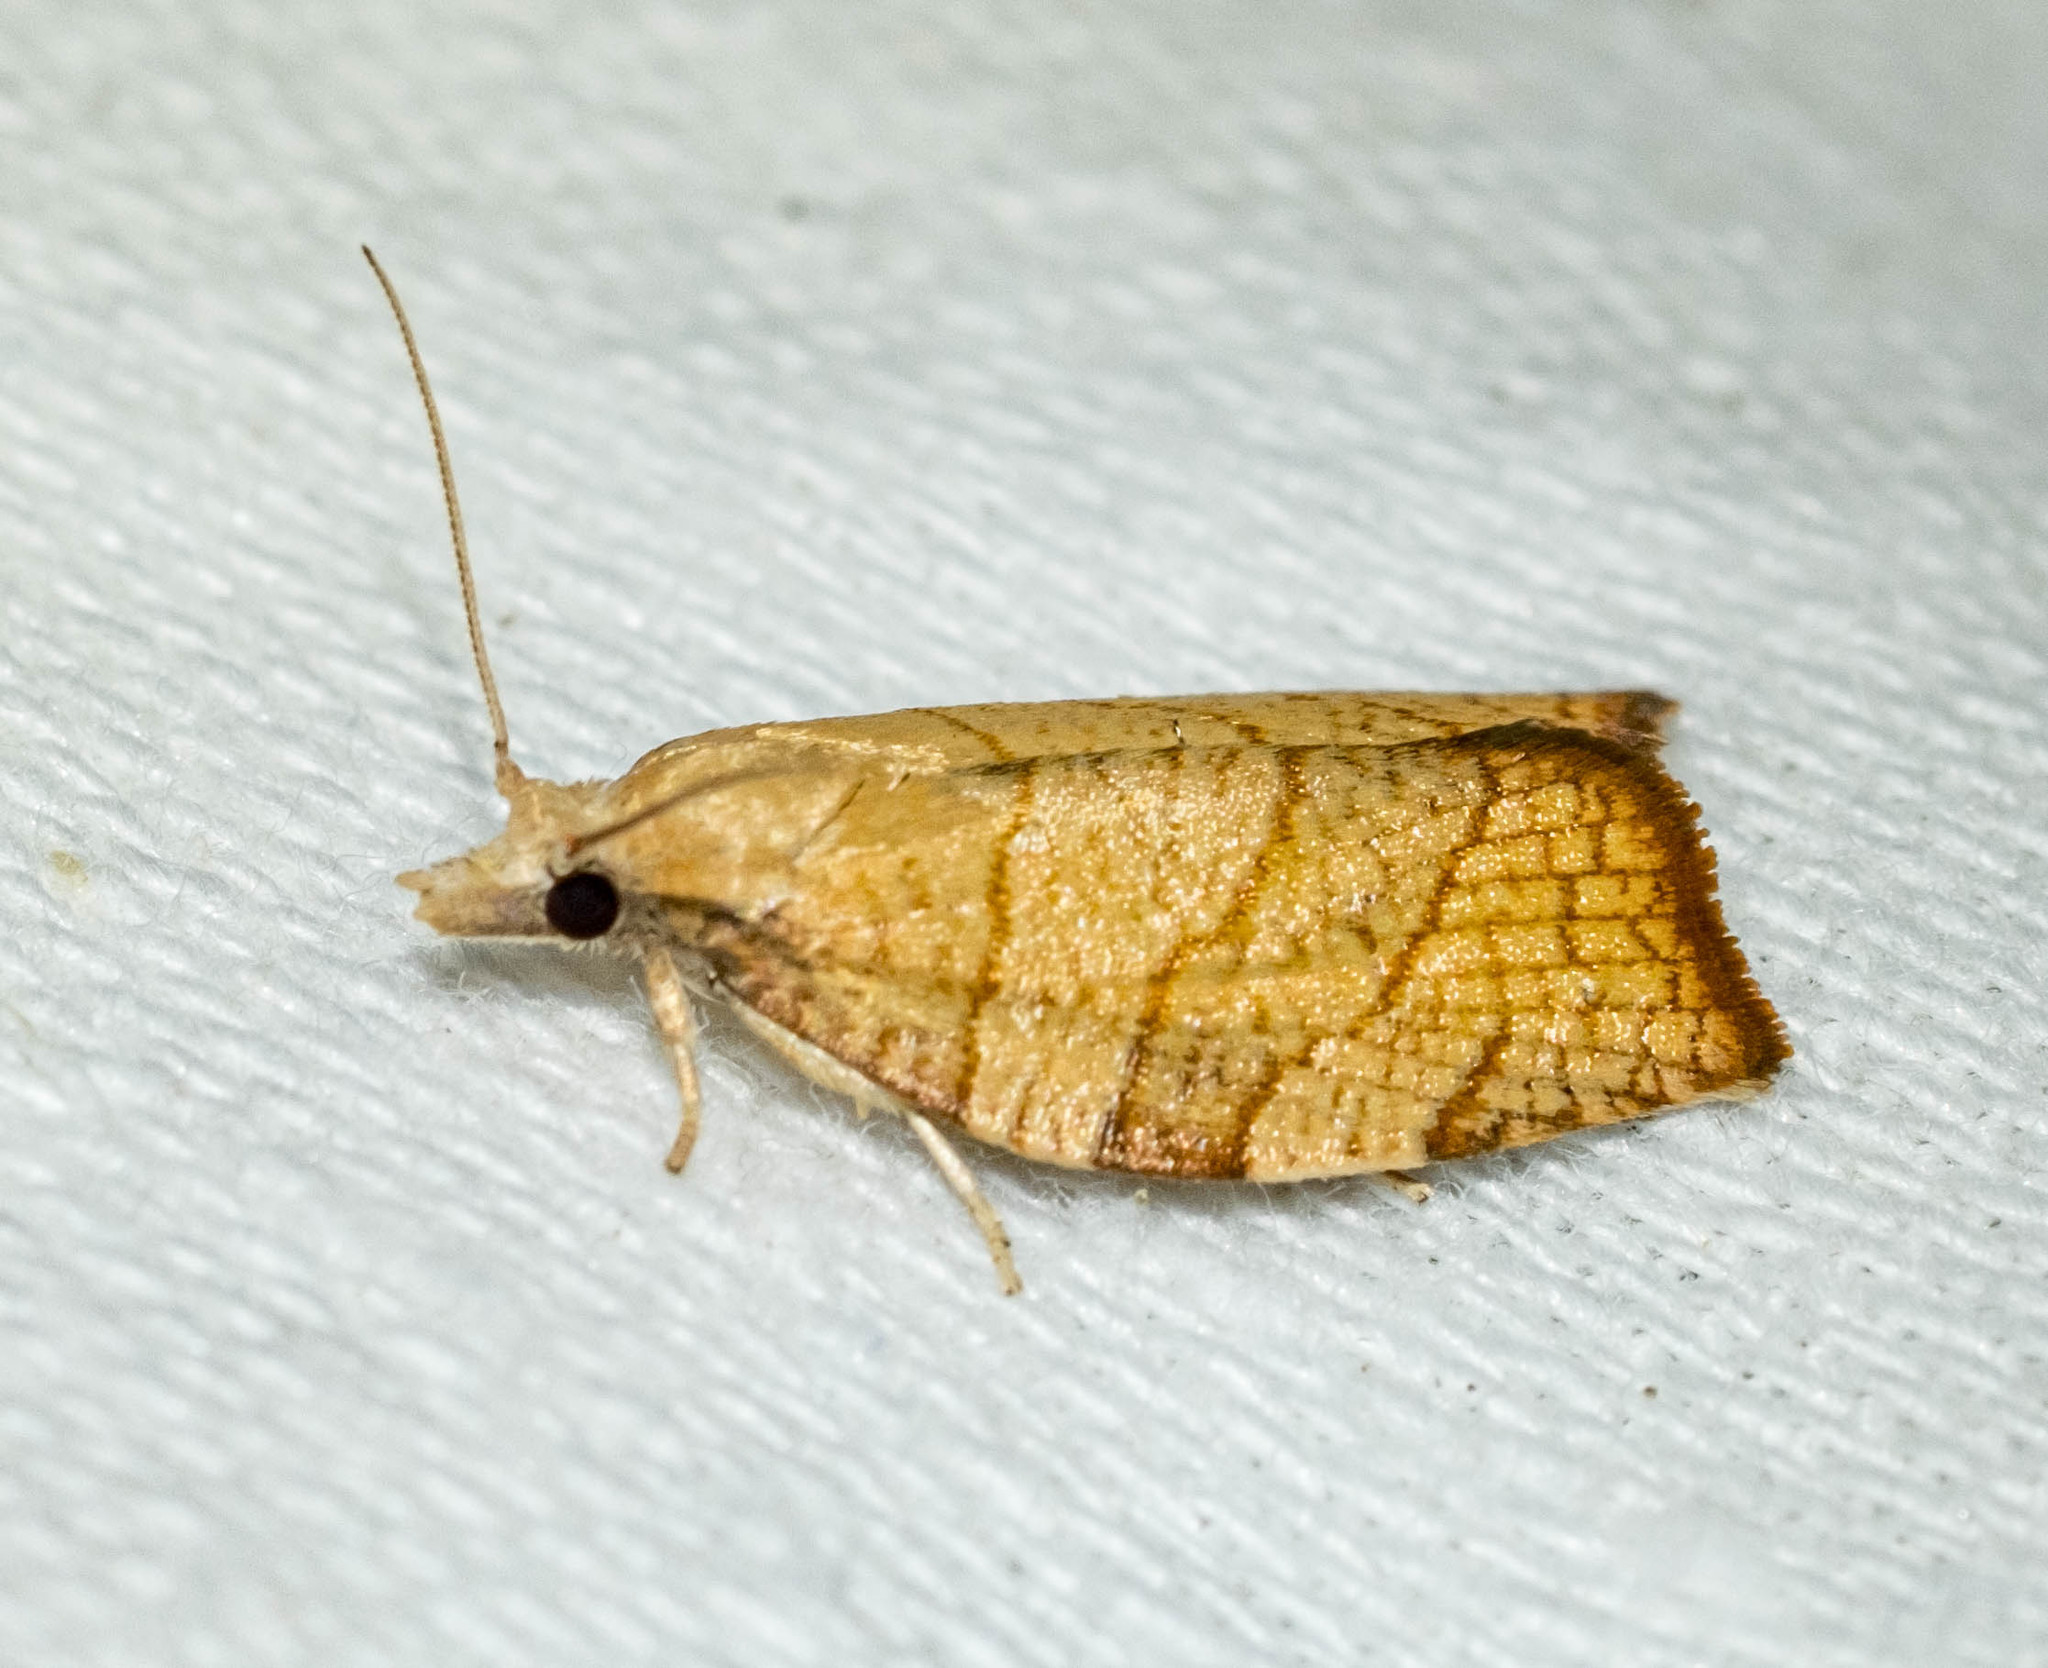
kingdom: Animalia
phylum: Arthropoda
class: Insecta
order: Lepidoptera
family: Tortricidae
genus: Pandemis
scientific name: Pandemis corylana
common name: Chequered fruit-tree tortrix
